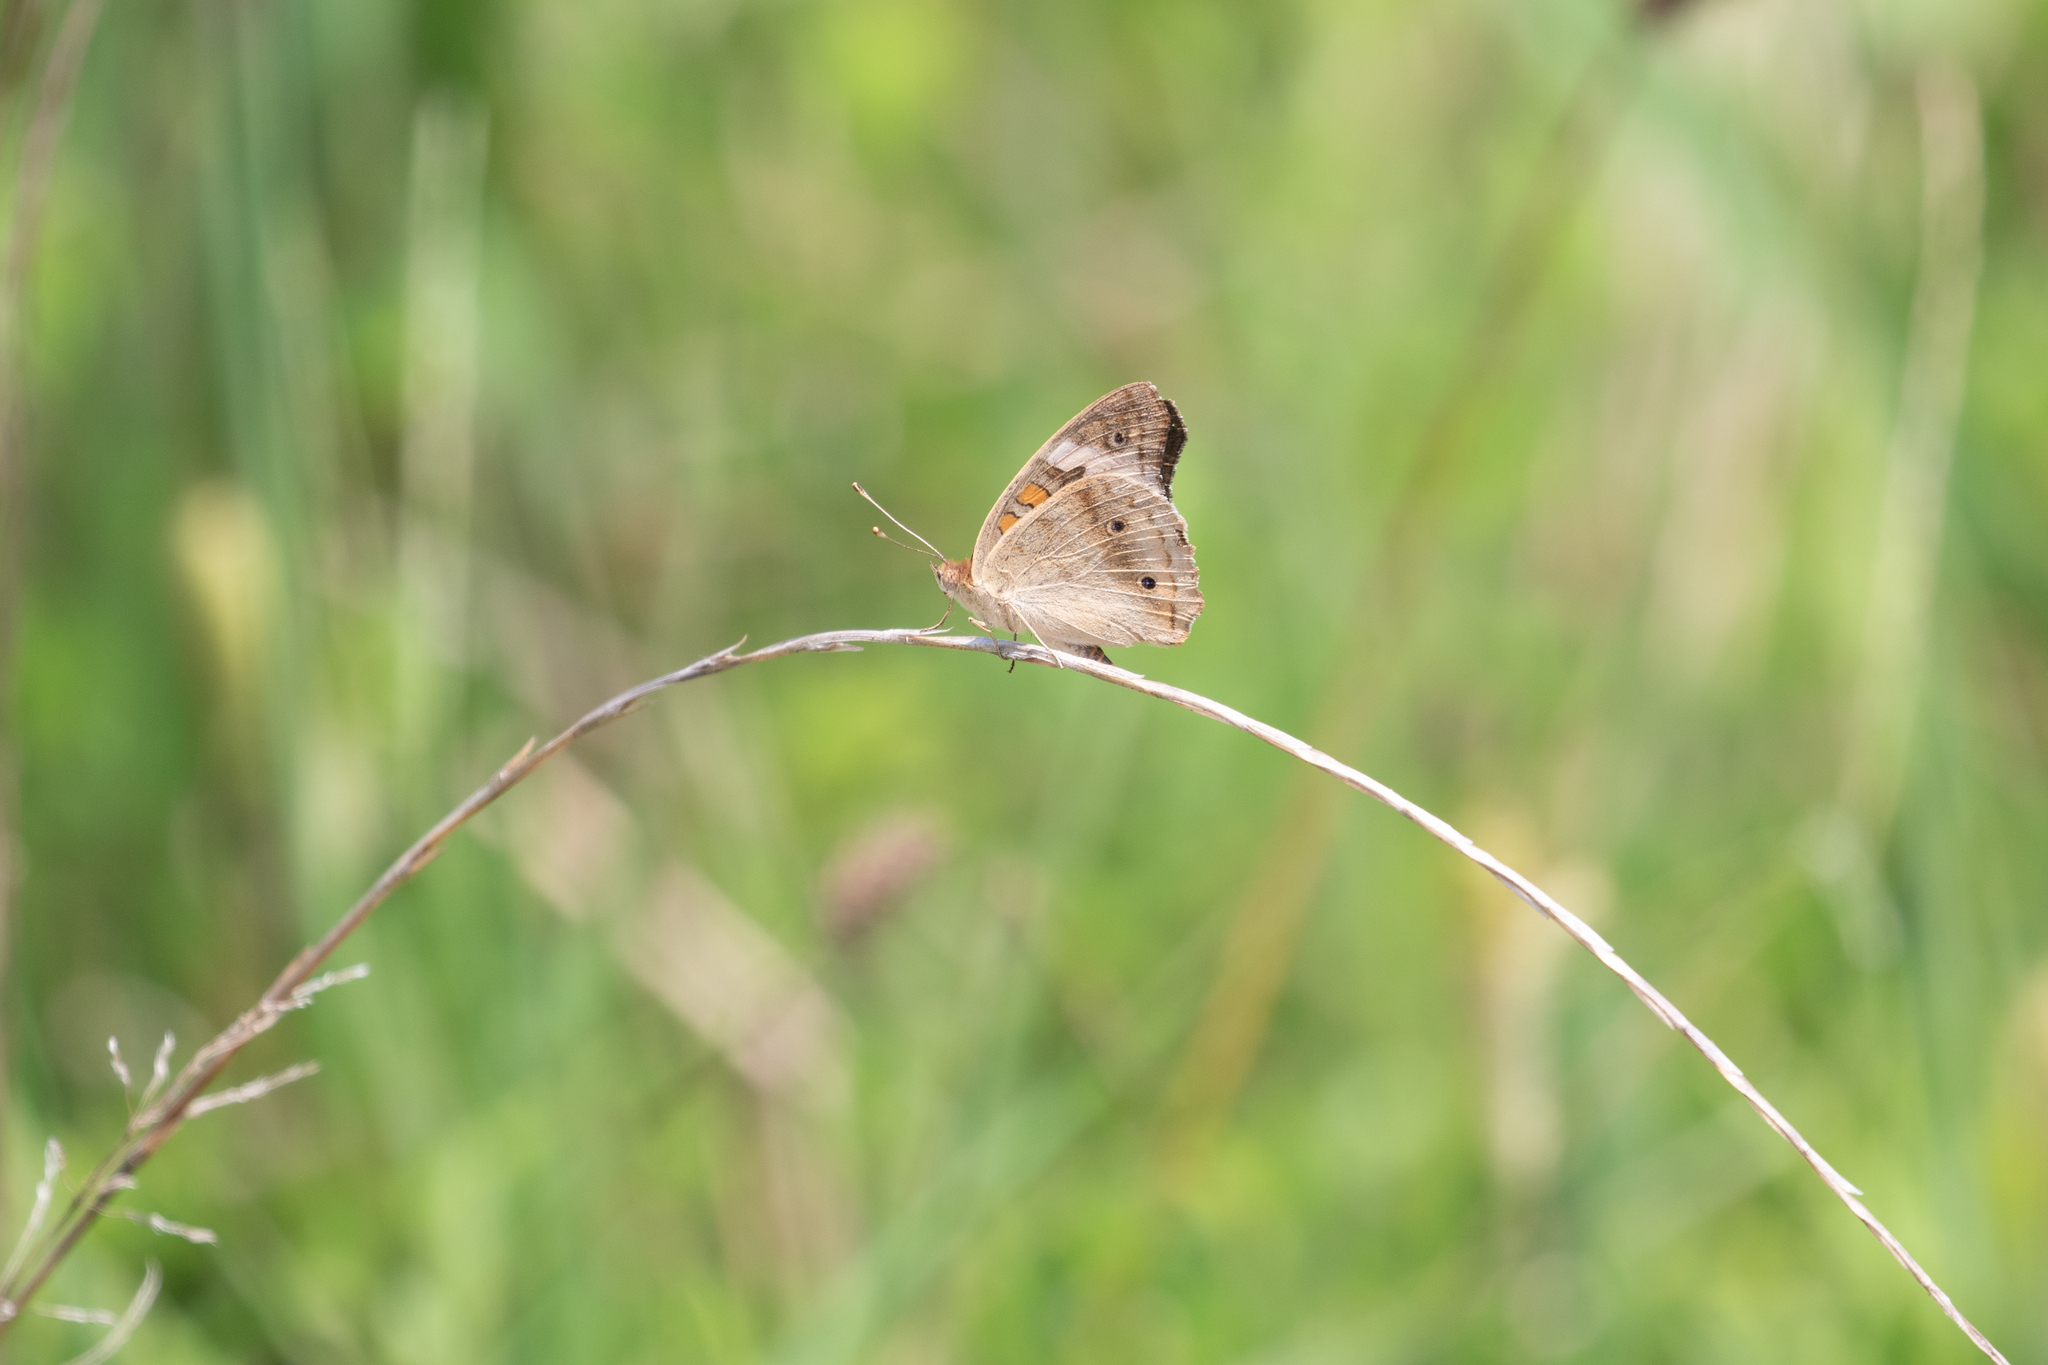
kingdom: Animalia
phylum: Arthropoda
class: Insecta
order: Lepidoptera
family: Nymphalidae
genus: Junonia
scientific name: Junonia coenia
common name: Common buckeye
